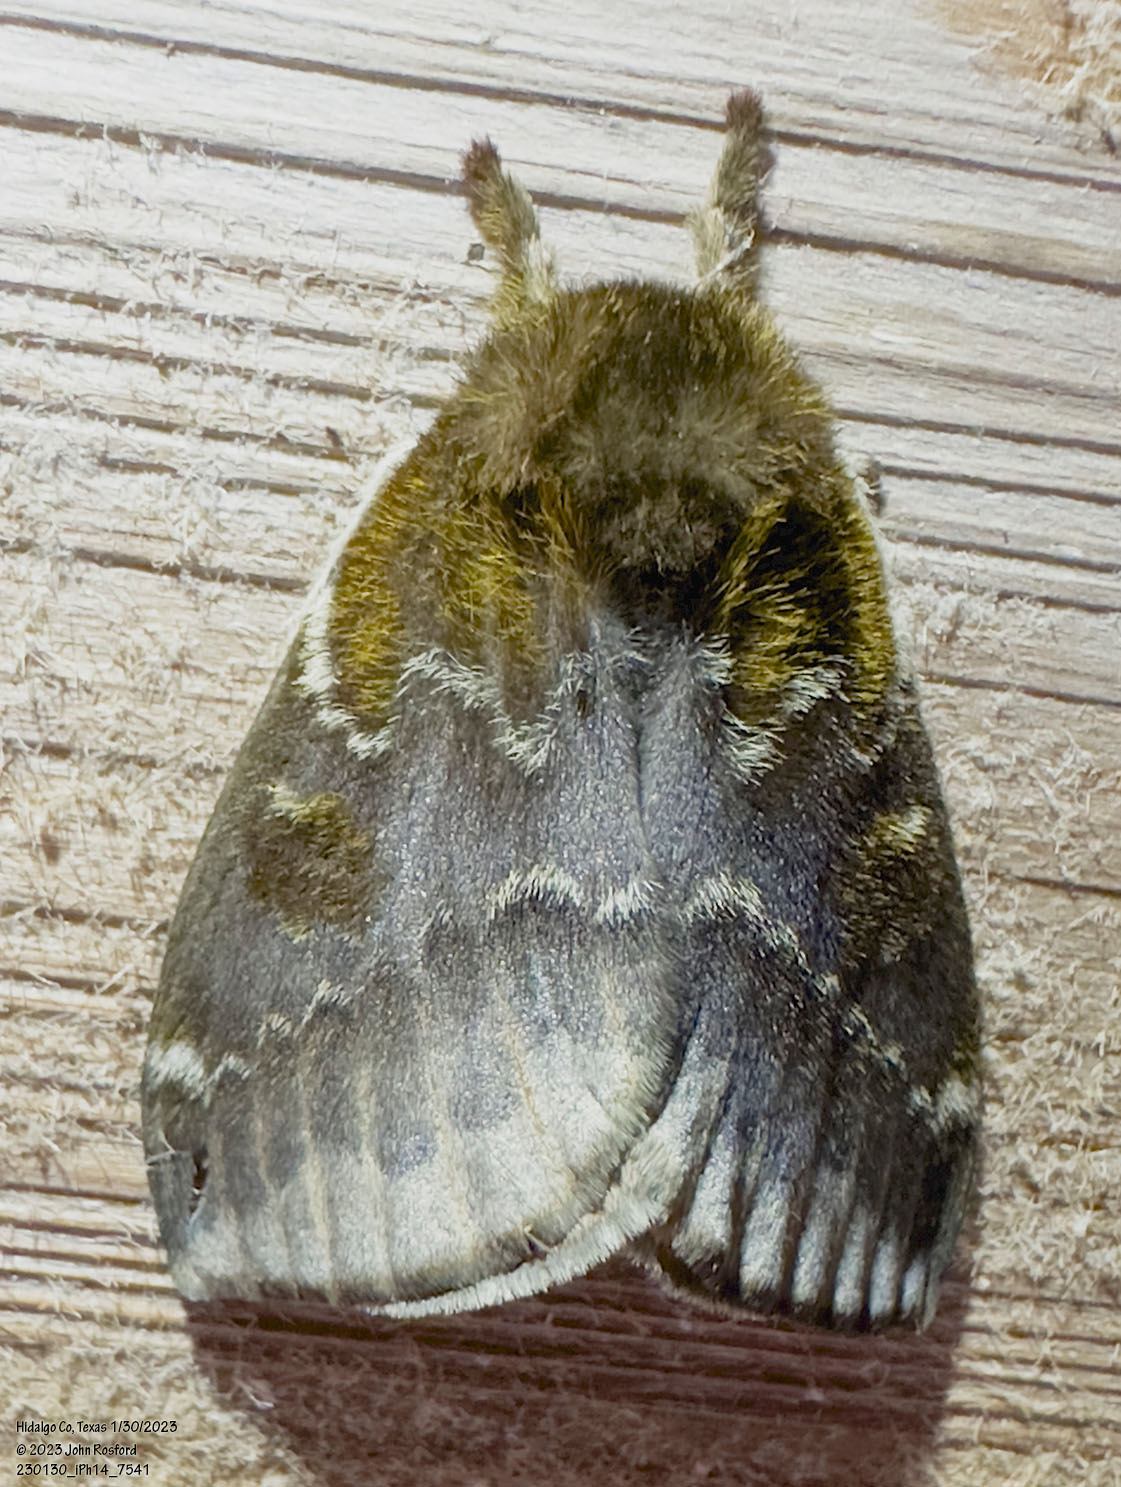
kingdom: Animalia
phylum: Arthropoda
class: Insecta
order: Lepidoptera
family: Saturniidae
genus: Automeris
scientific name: Automeris io
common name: Io moth
